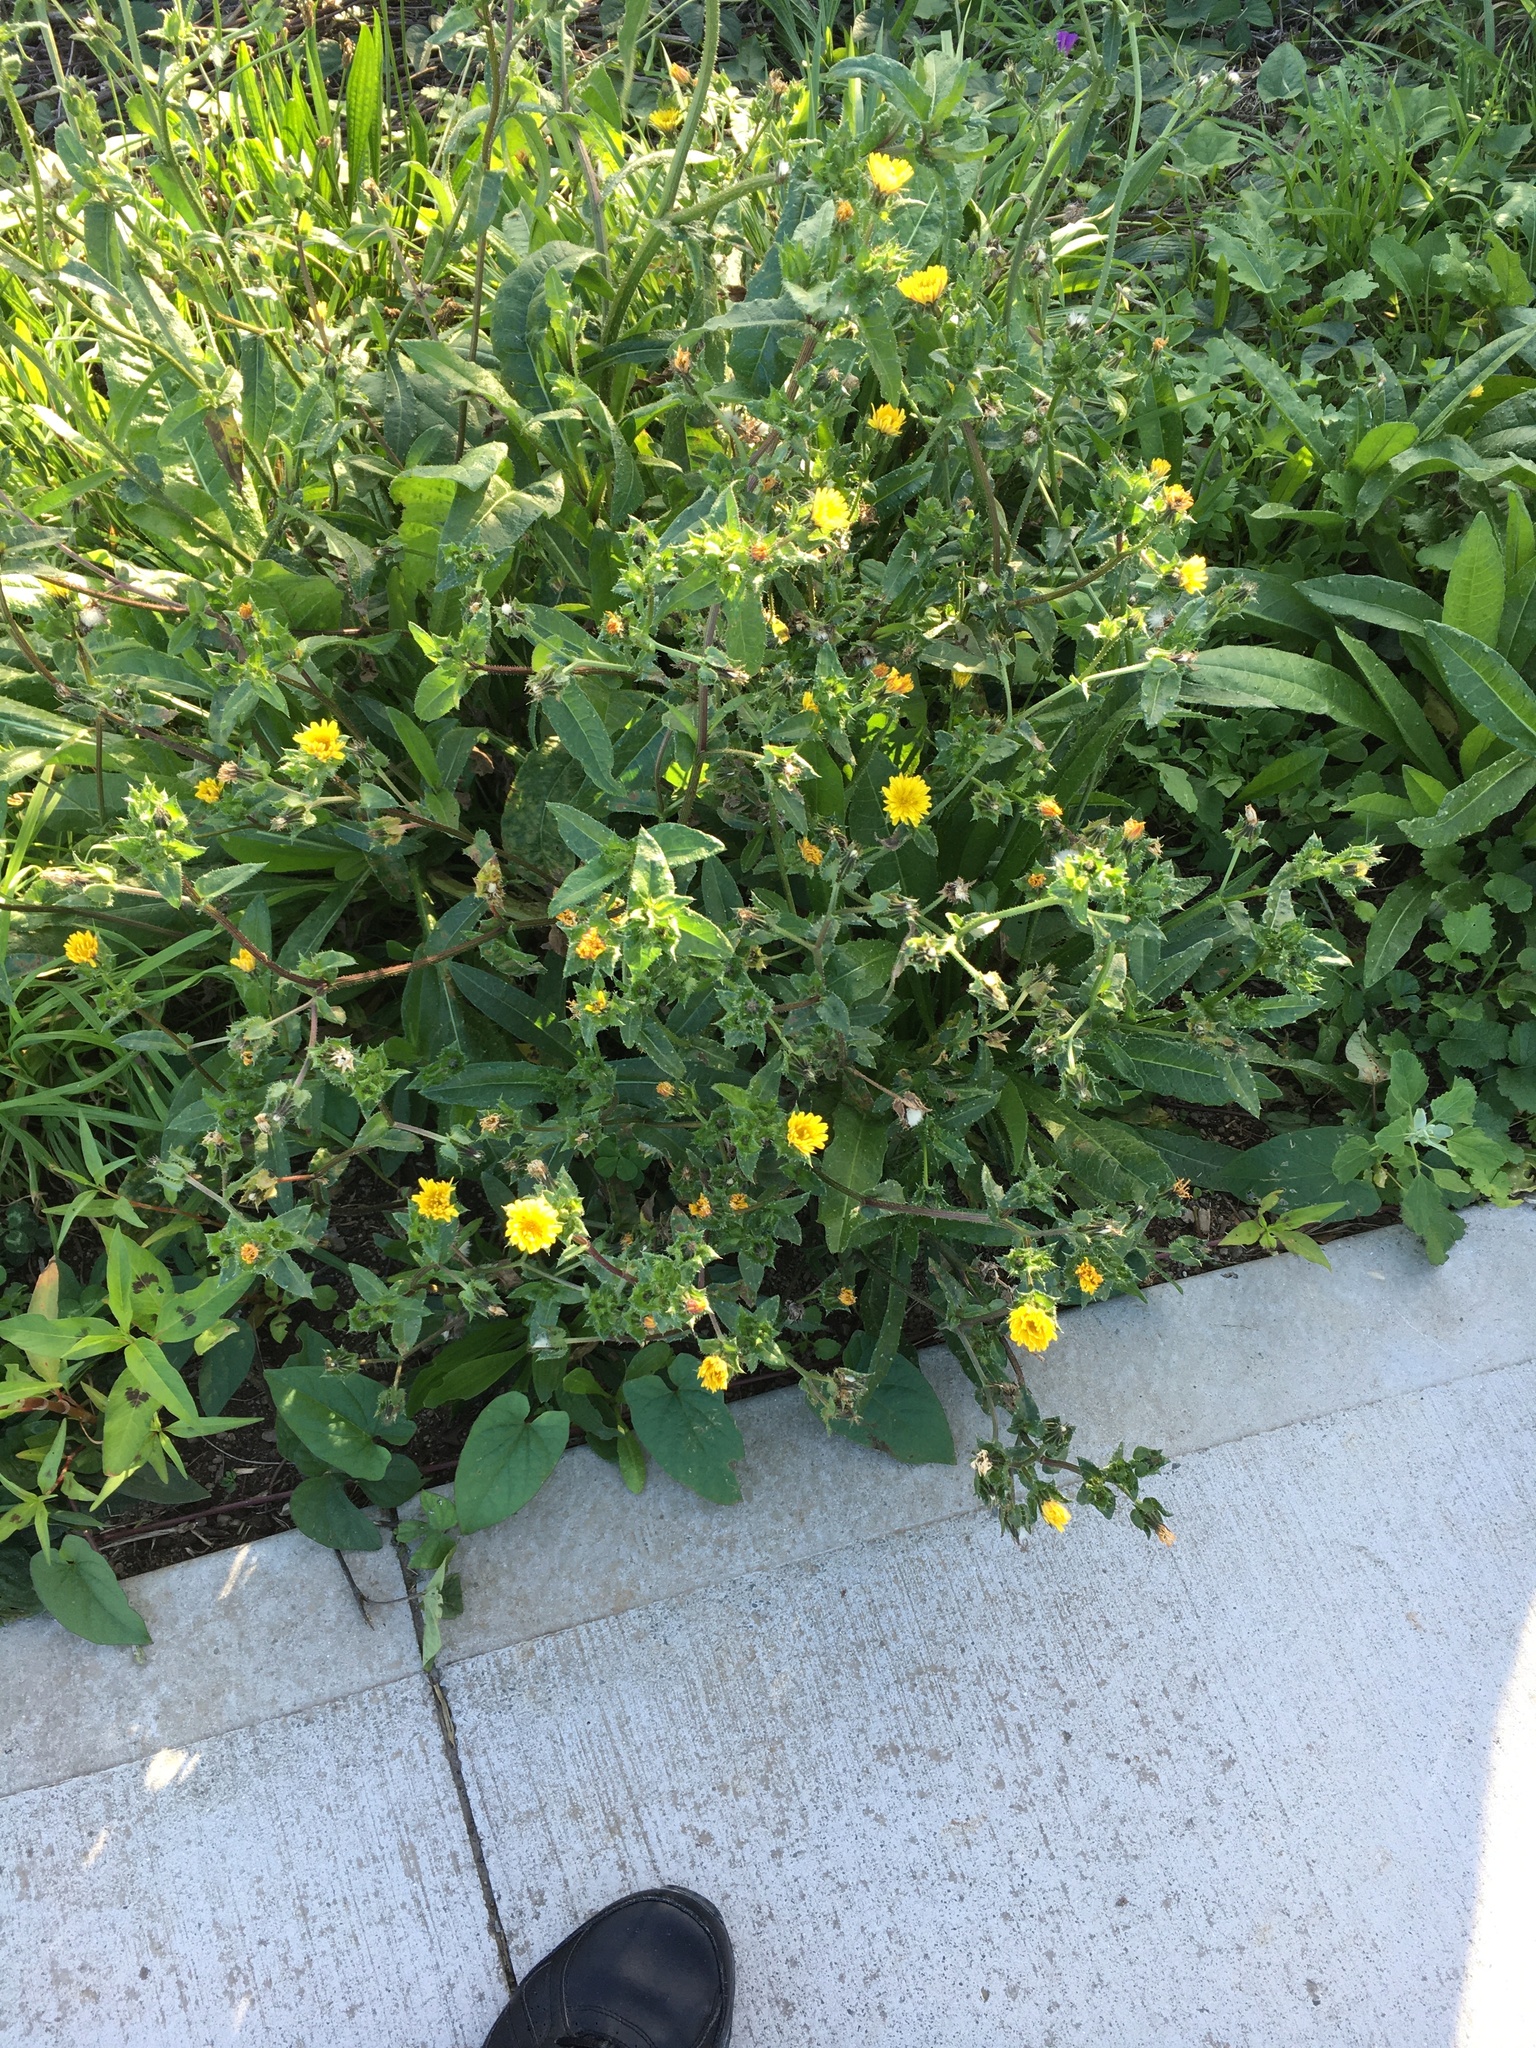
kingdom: Plantae
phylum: Tracheophyta
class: Magnoliopsida
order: Asterales
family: Asteraceae
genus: Helminthotheca
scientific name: Helminthotheca echioides
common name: Ox-tongue
